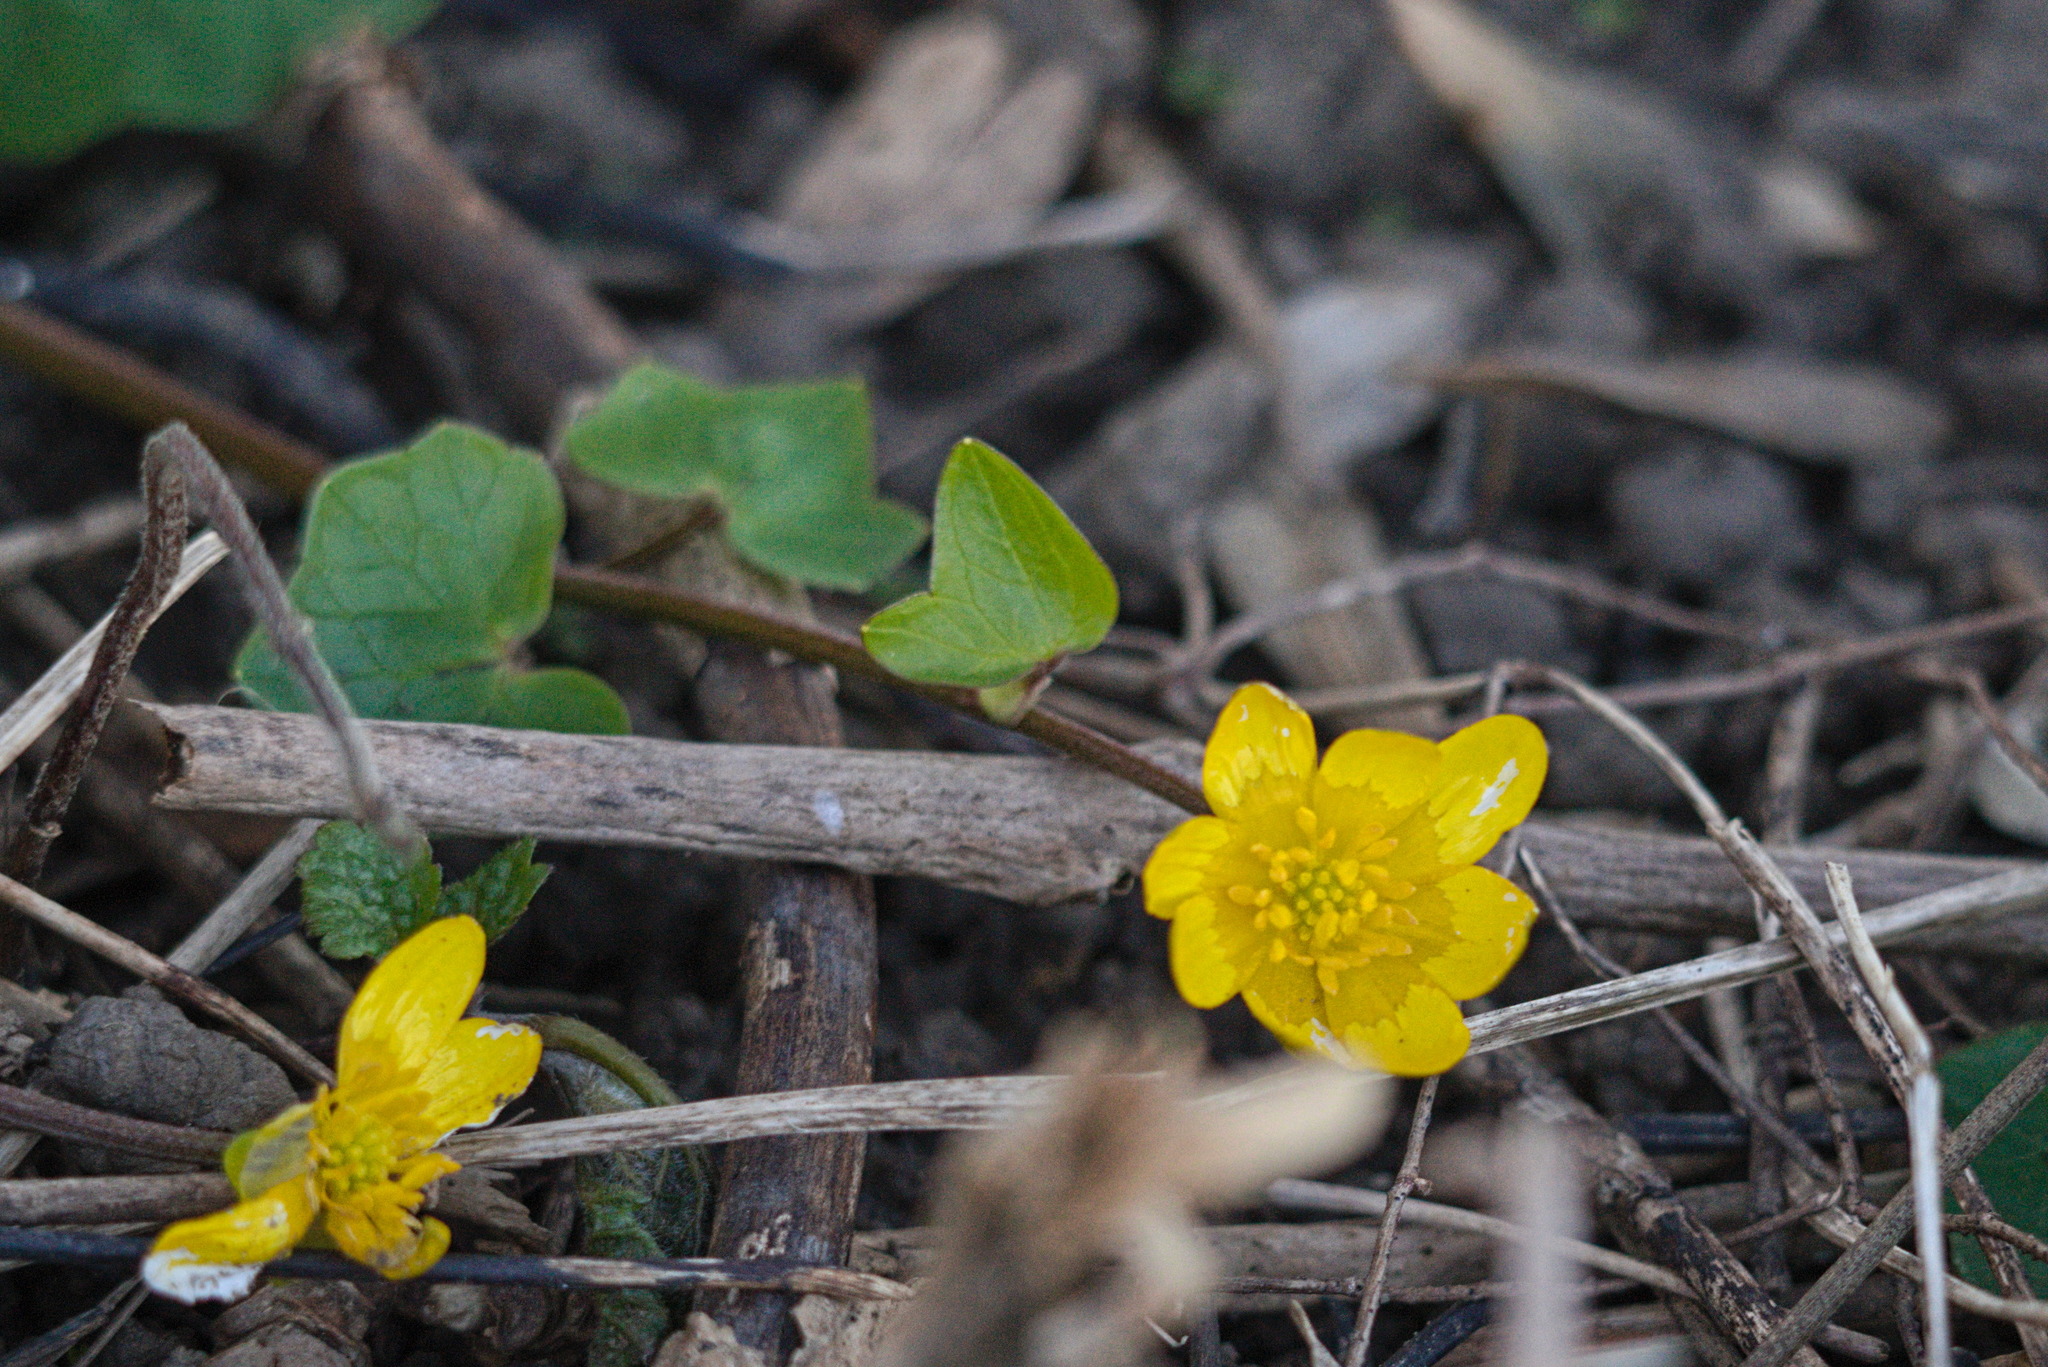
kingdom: Plantae
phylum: Tracheophyta
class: Magnoliopsida
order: Ranunculales
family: Ranunculaceae
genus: Ficaria
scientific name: Ficaria verna
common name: Lesser celandine
